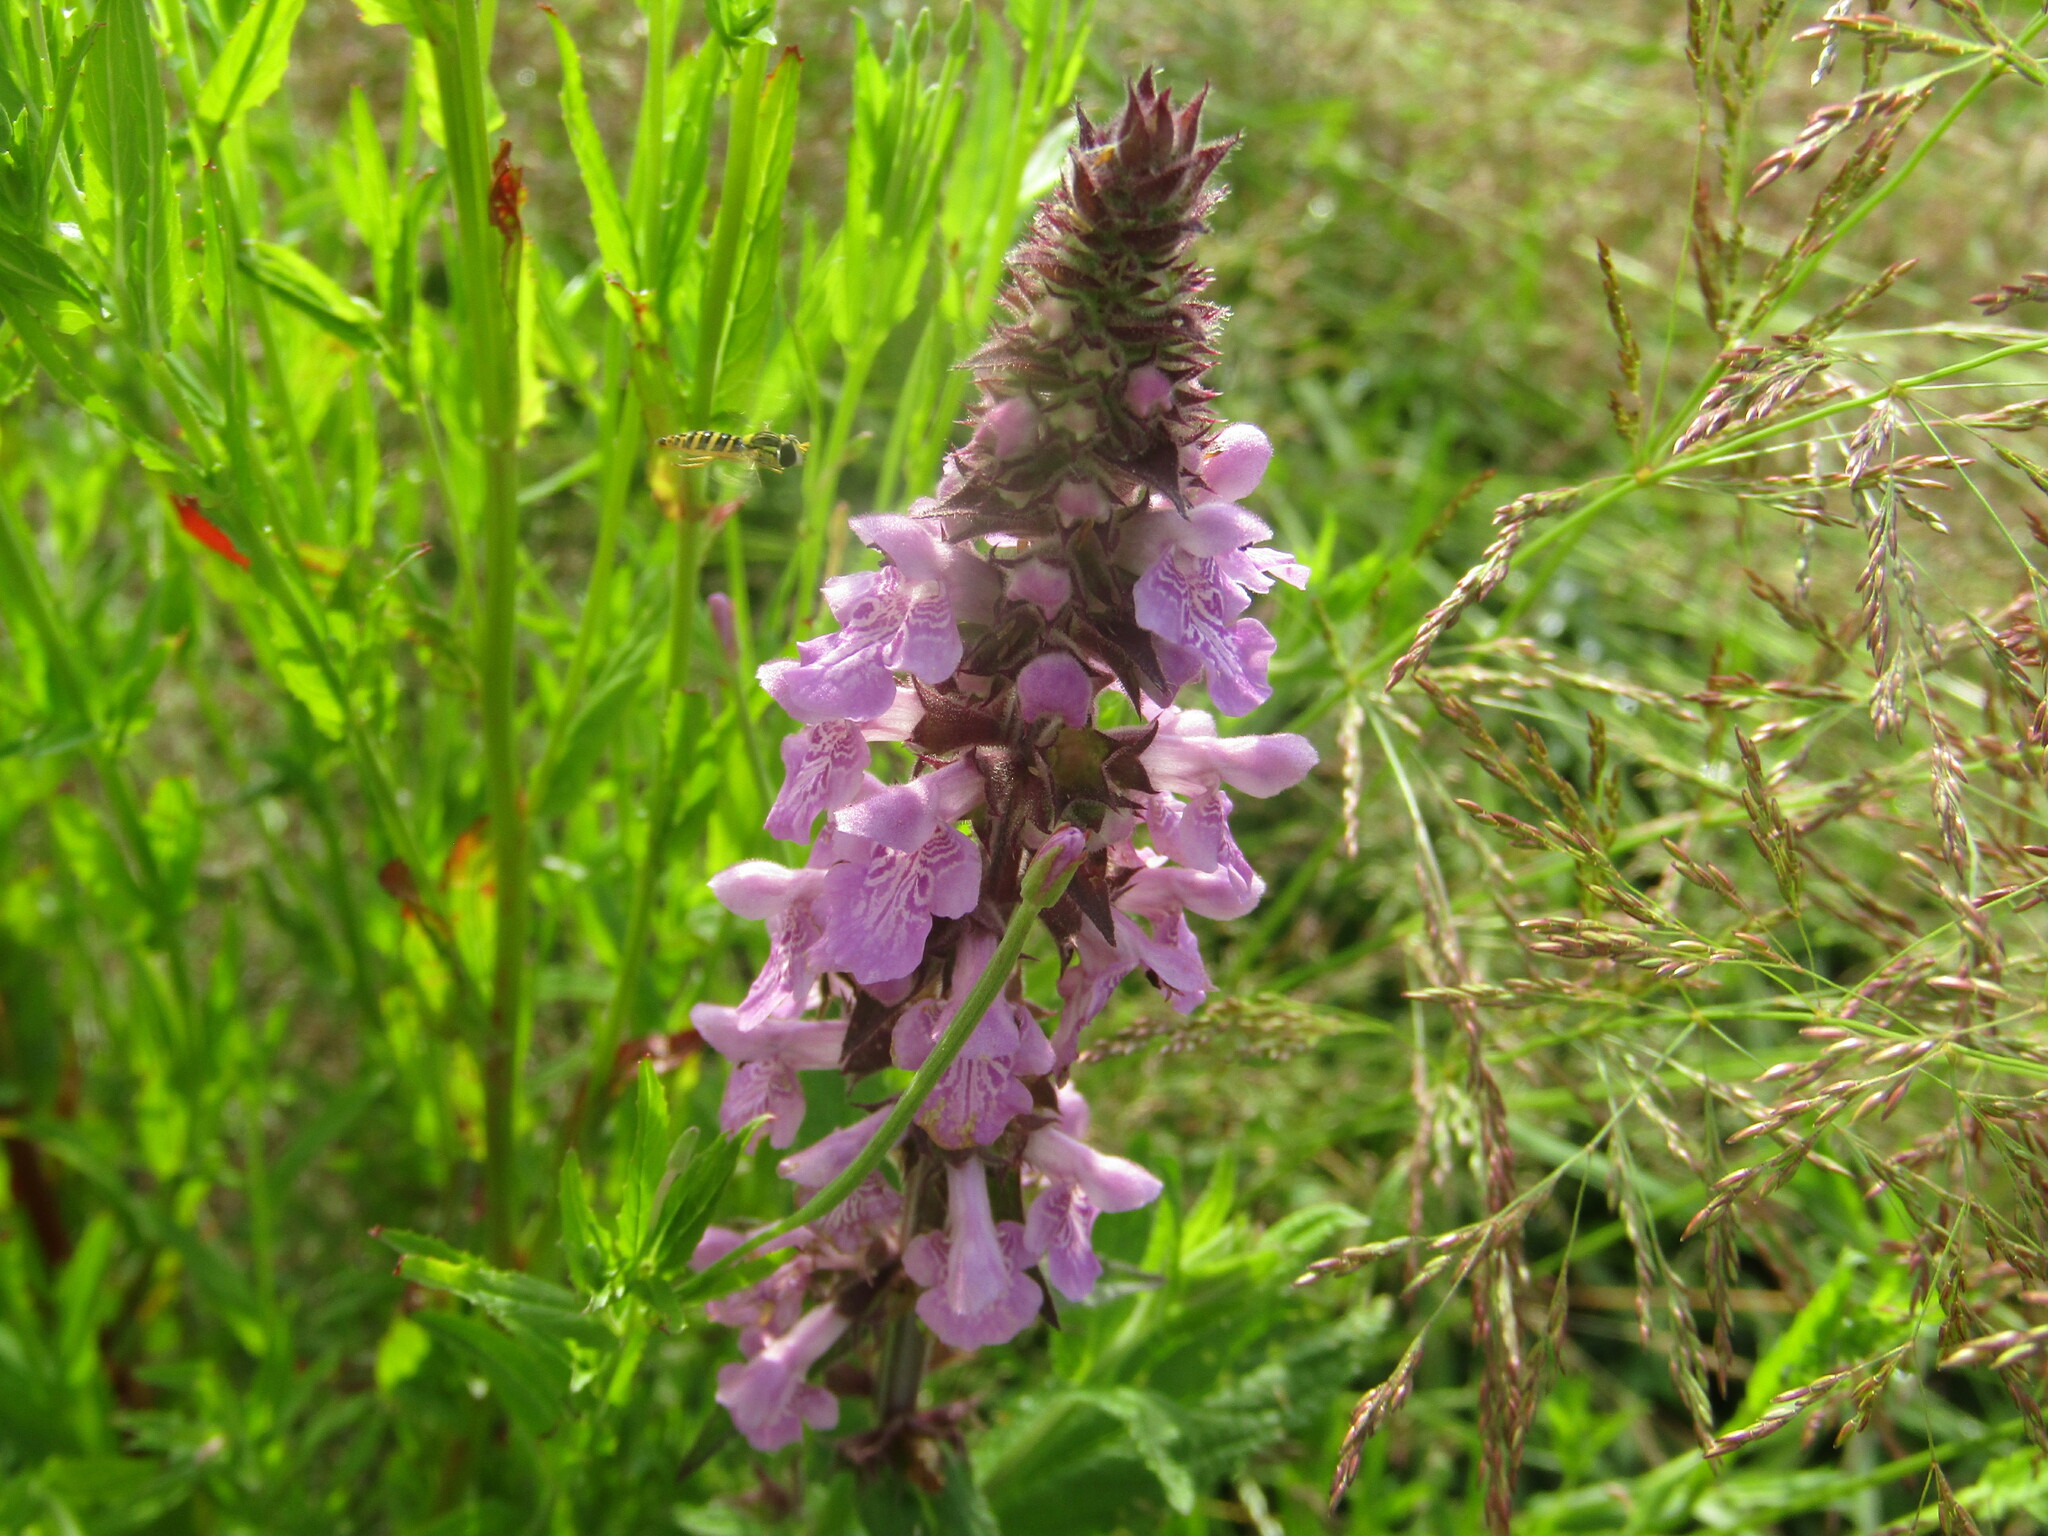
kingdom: Plantae
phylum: Tracheophyta
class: Magnoliopsida
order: Lamiales
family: Lamiaceae
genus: Stachys
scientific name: Stachys palustris
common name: Marsh woundwort
